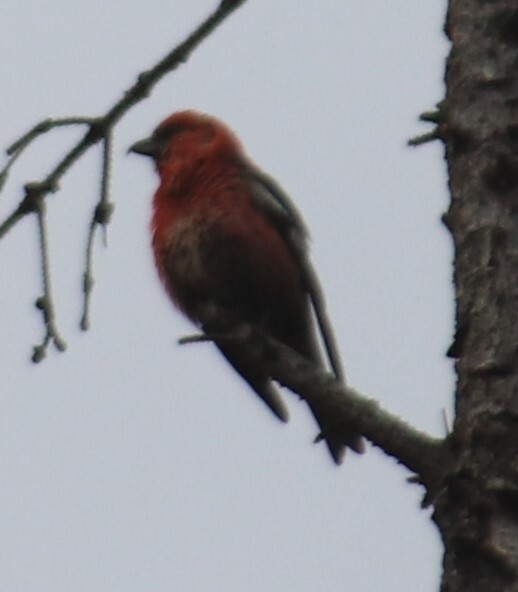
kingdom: Animalia
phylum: Chordata
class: Aves
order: Passeriformes
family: Fringillidae
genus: Loxia
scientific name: Loxia leucoptera
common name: Two-barred crossbill
